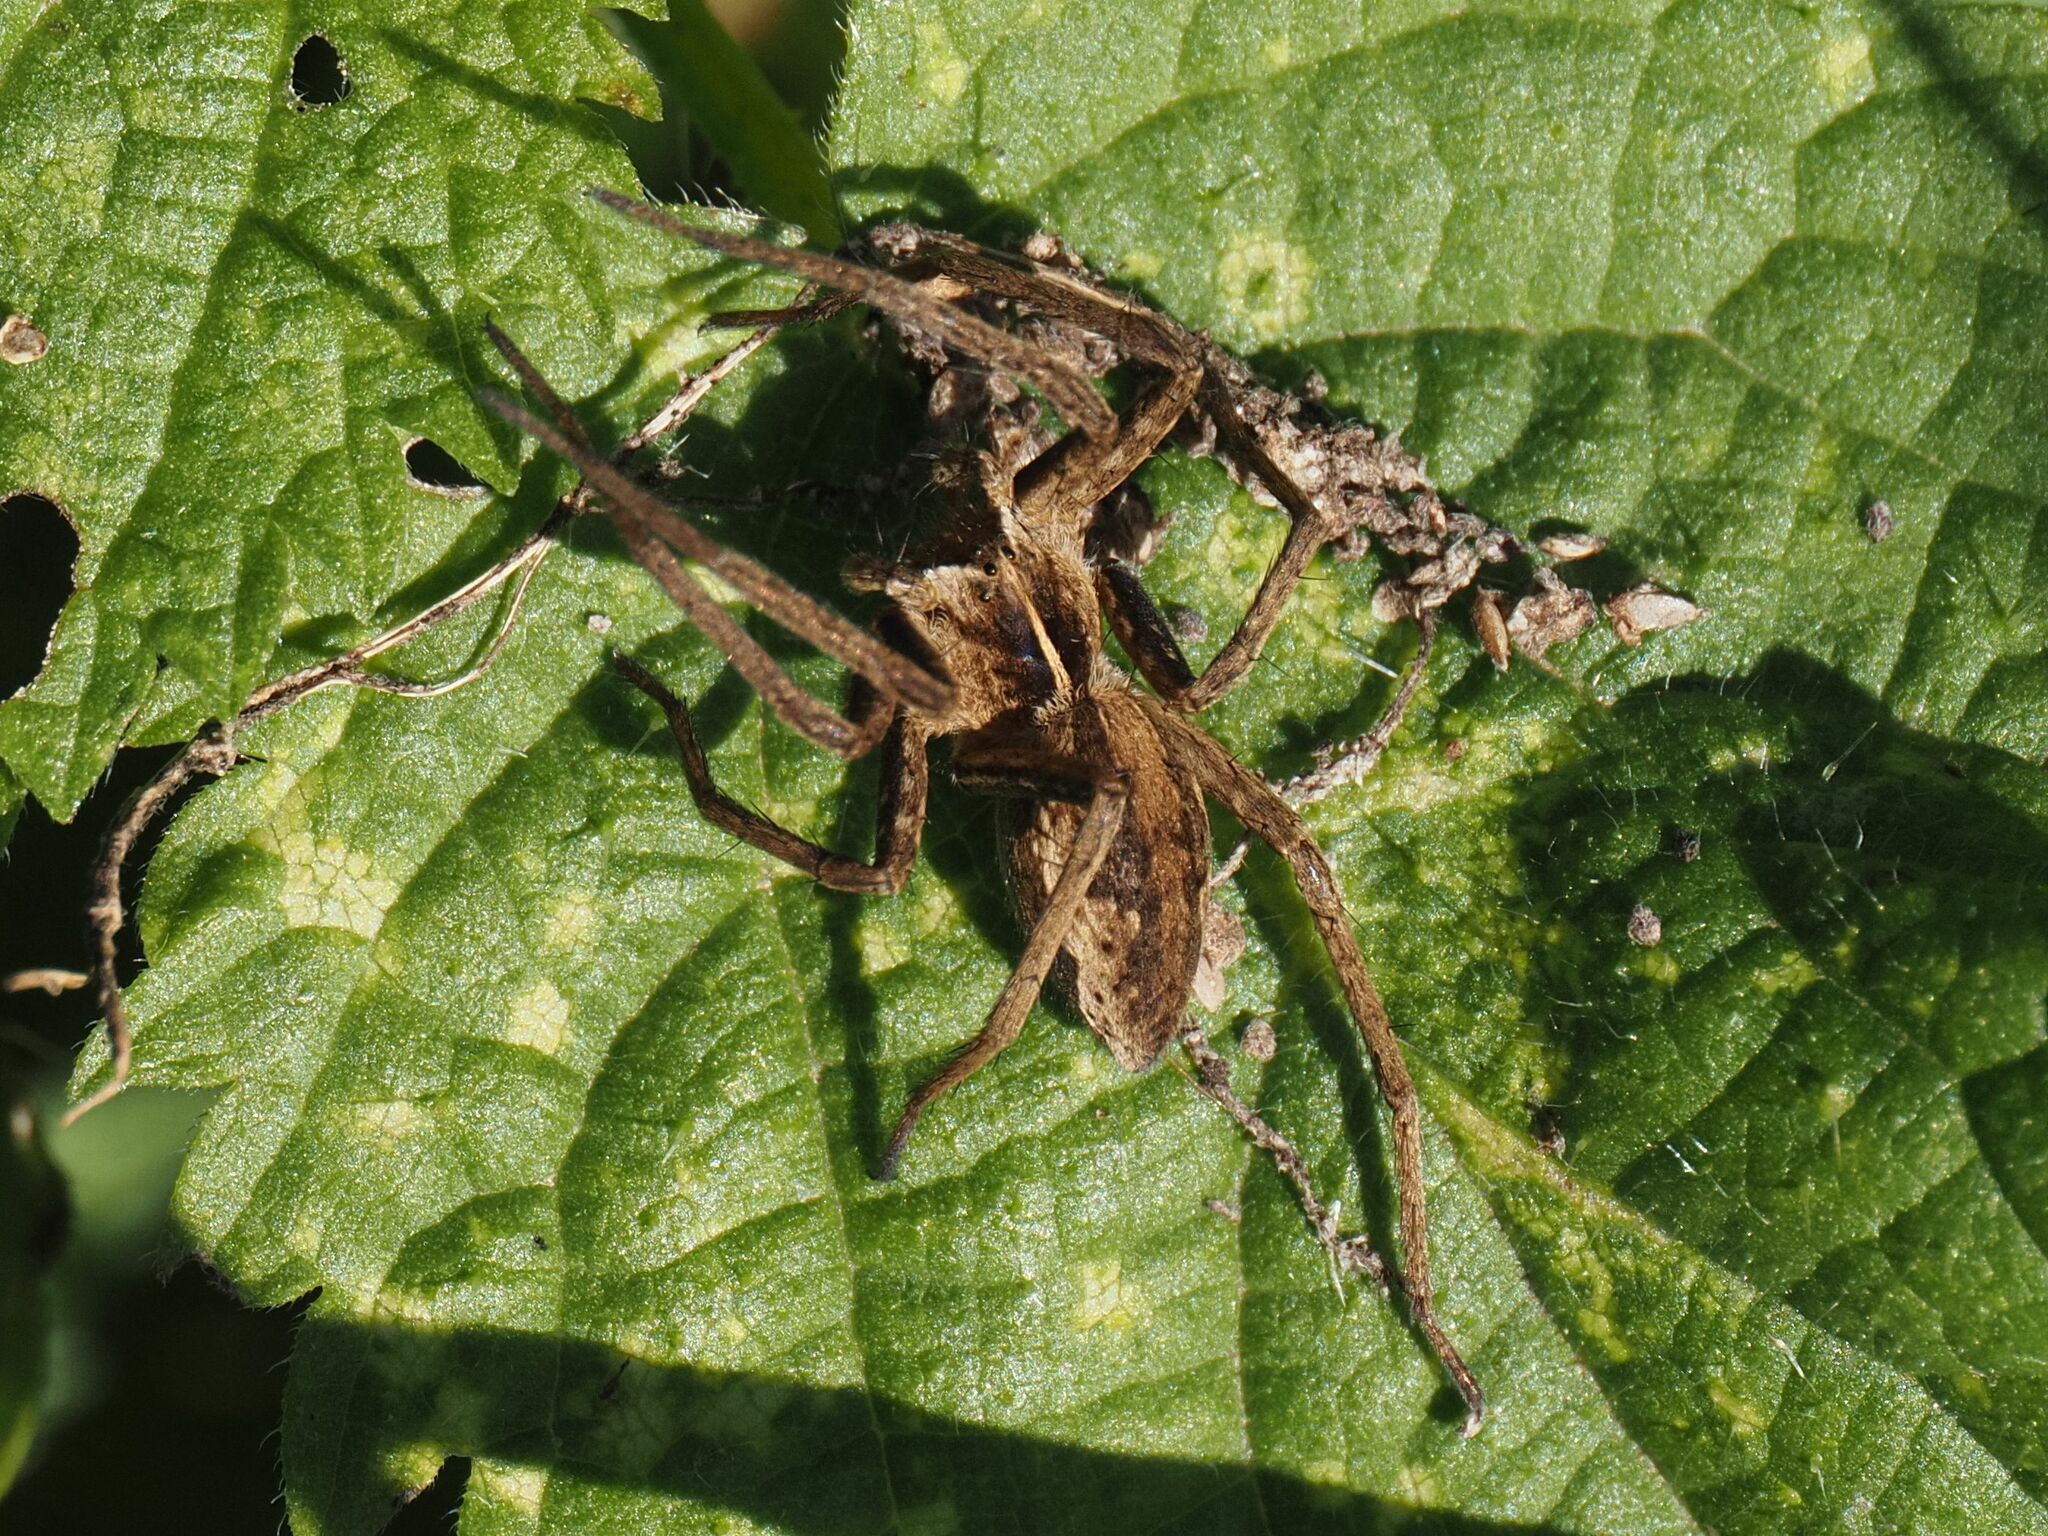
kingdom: Animalia
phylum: Arthropoda
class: Arachnida
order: Araneae
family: Pisauridae
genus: Pisaura
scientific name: Pisaura mirabilis
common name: Tent spider
